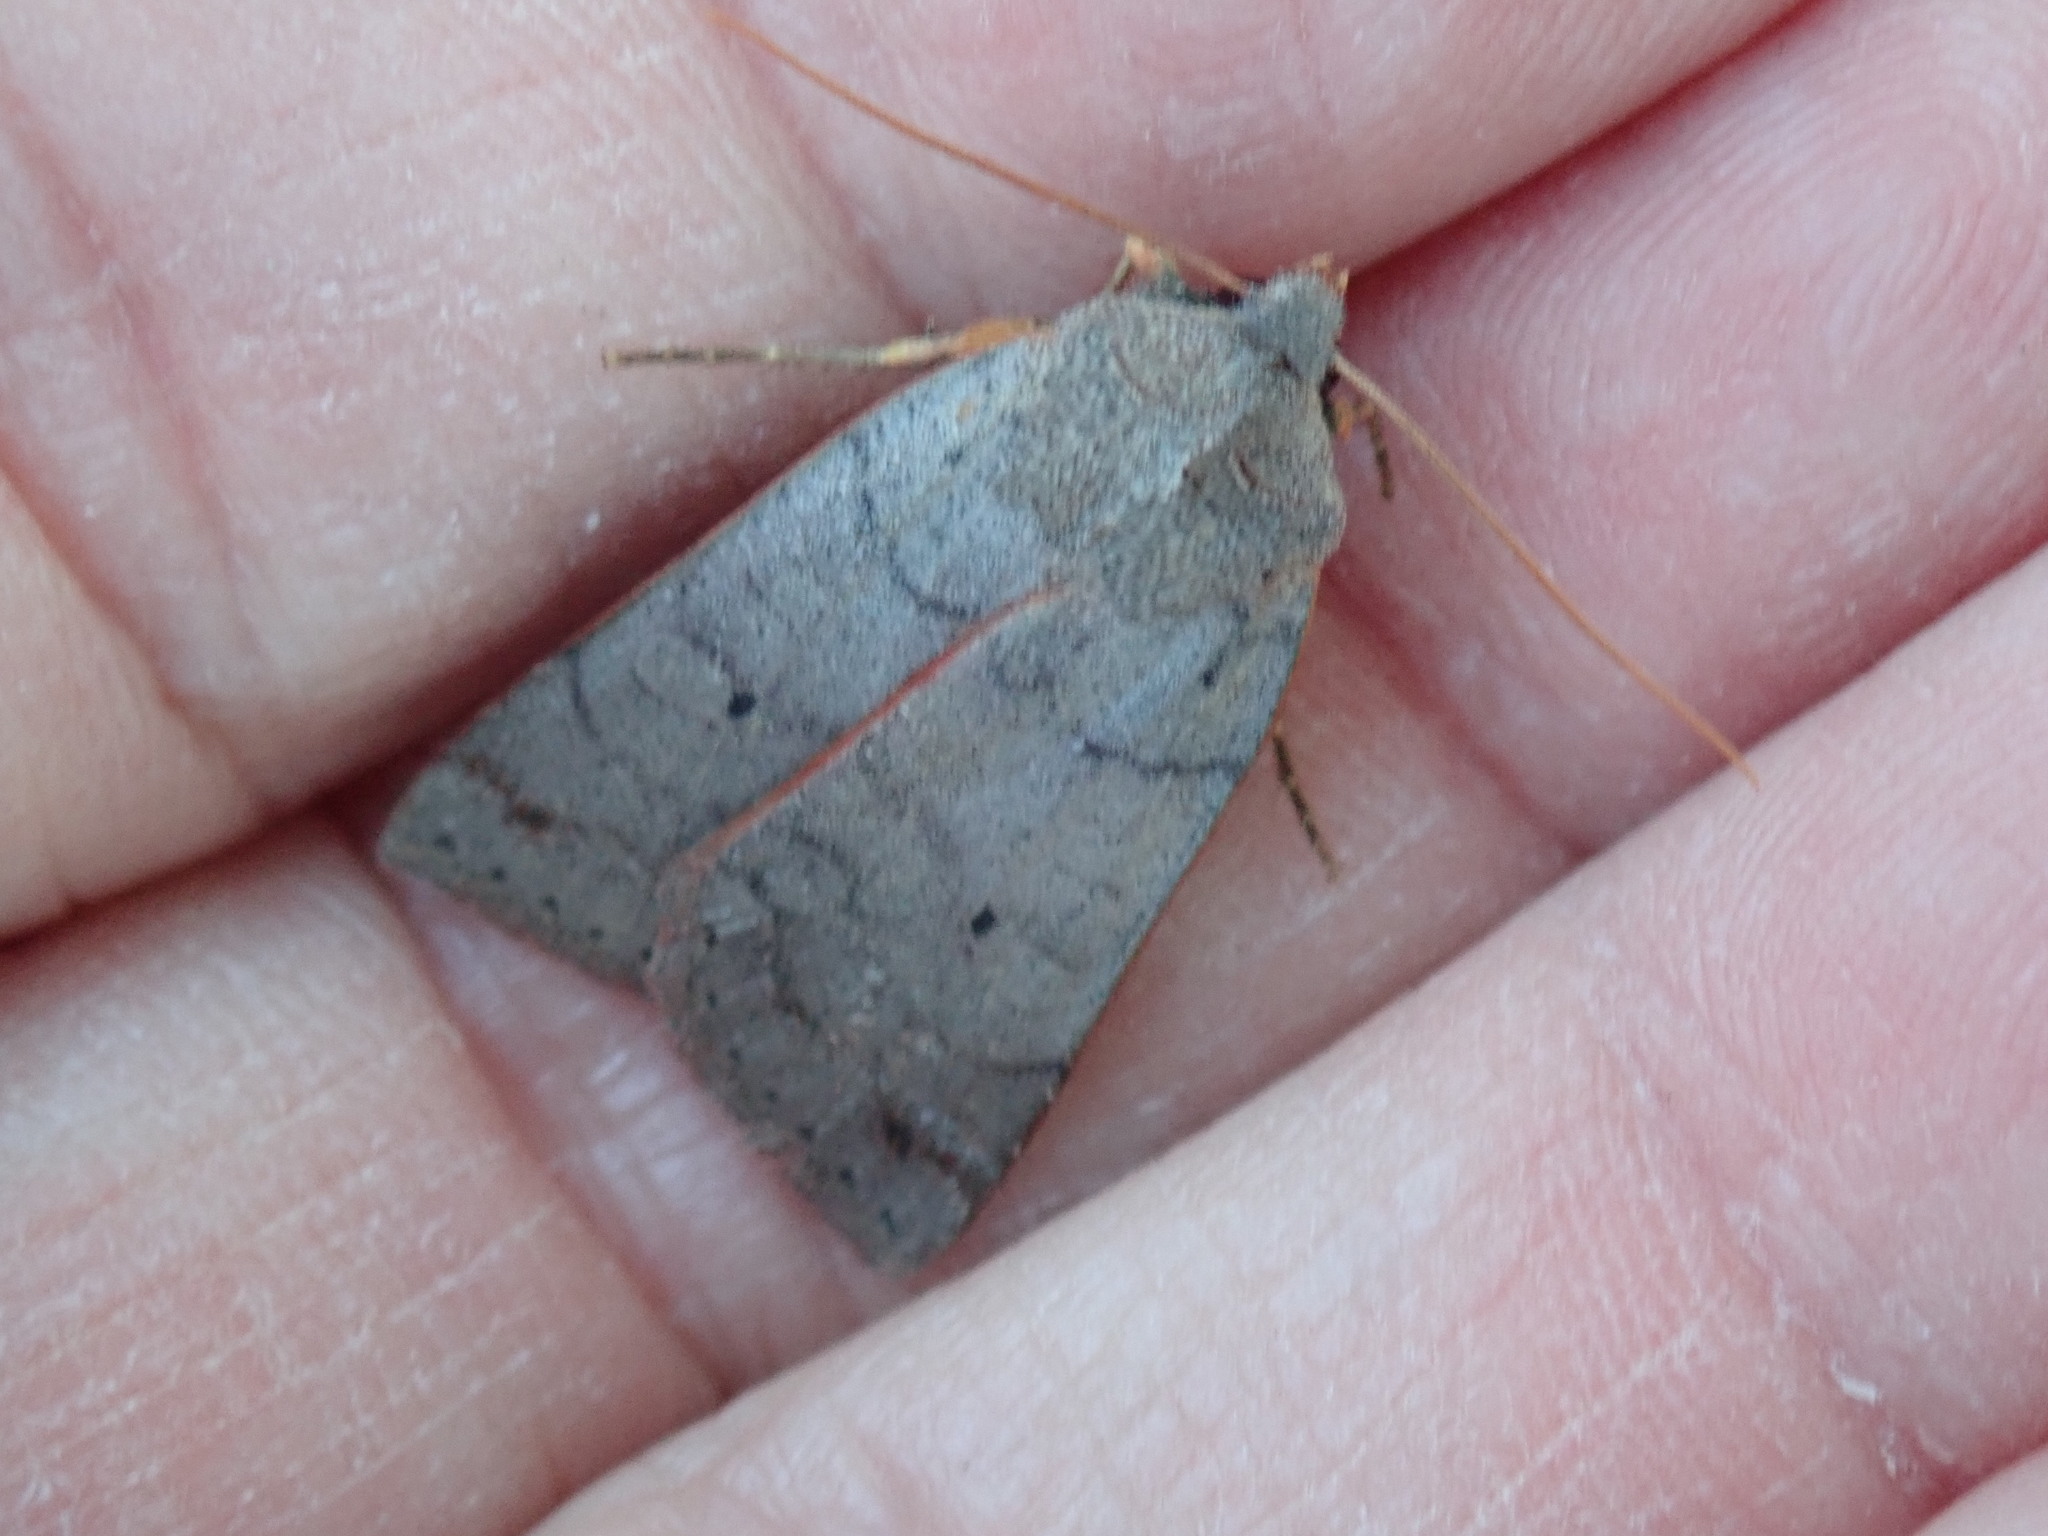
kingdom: Animalia
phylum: Arthropoda
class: Insecta
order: Lepidoptera
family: Noctuidae
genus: Chaetaglaea
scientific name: Chaetaglaea rhonda
